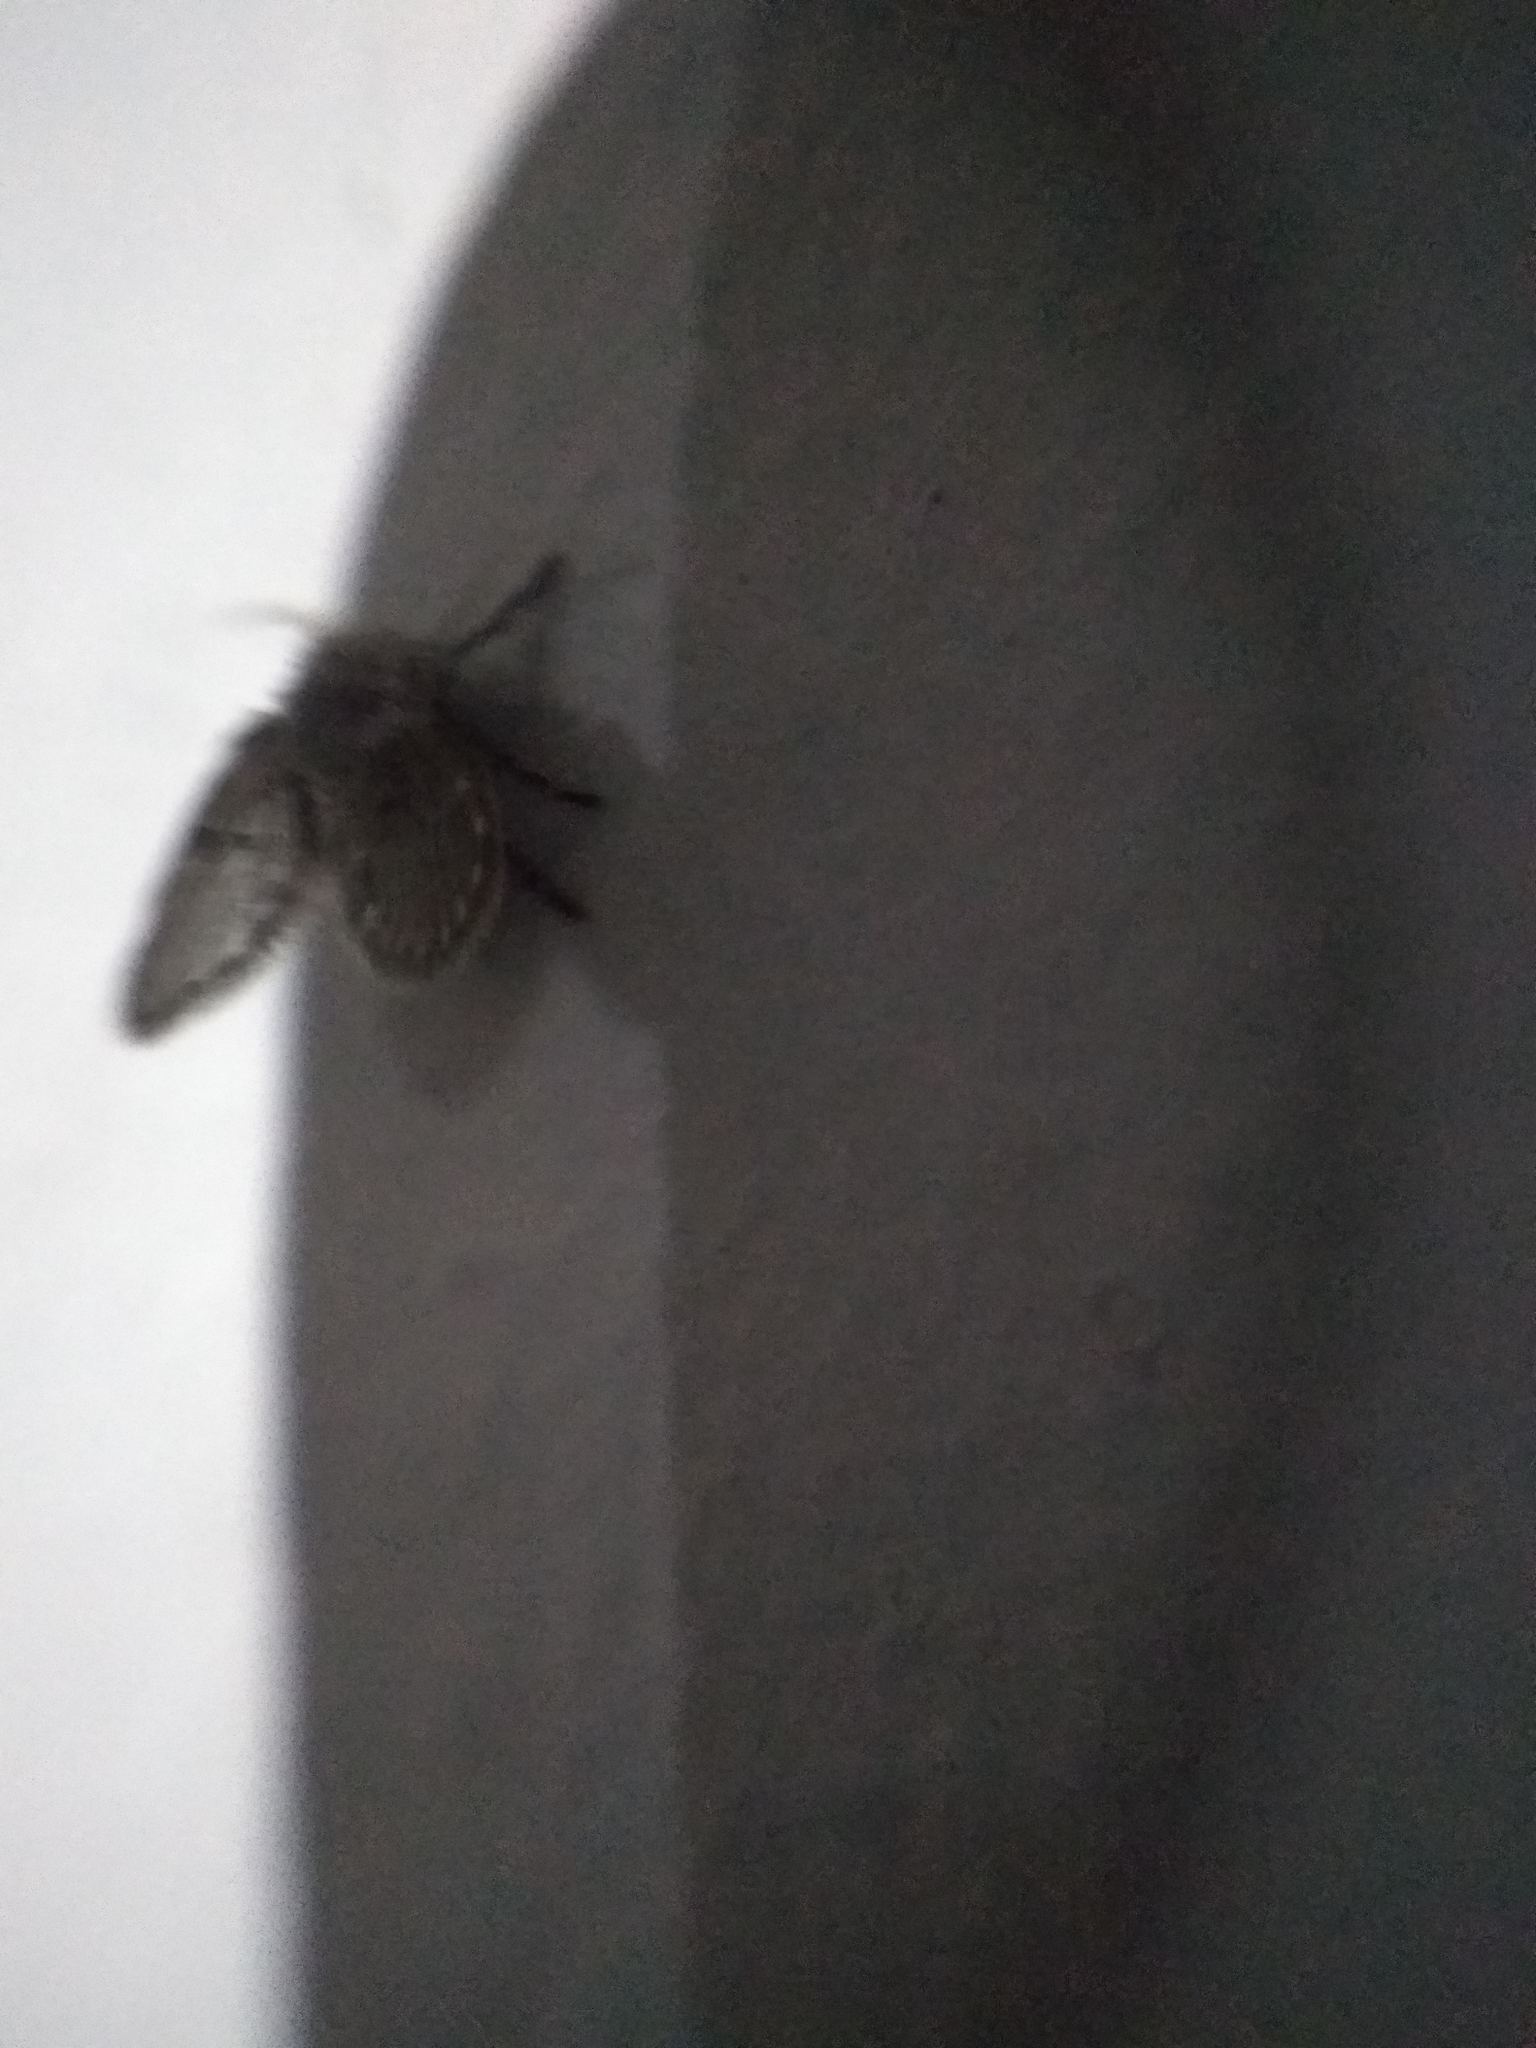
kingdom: Animalia
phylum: Arthropoda
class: Insecta
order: Diptera
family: Psychodidae
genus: Clogmia
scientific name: Clogmia albipunctatus
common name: White-spotted moth fly
